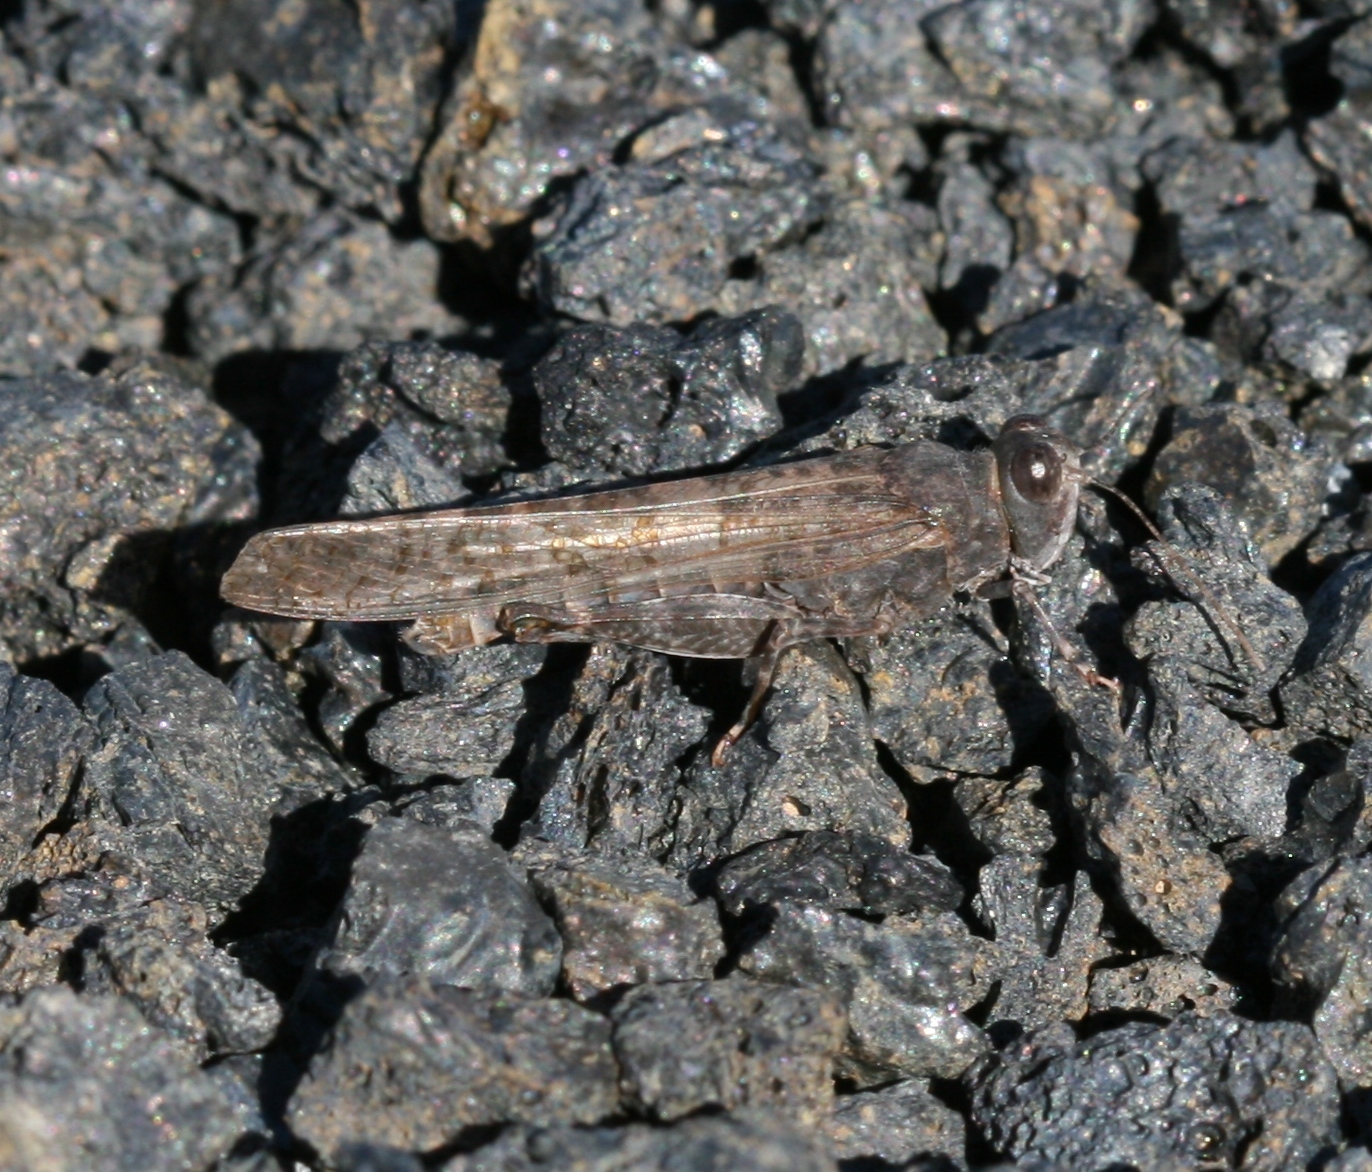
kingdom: Animalia
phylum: Arthropoda
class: Insecta
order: Orthoptera
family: Acrididae
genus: Sphingonotus
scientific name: Sphingonotus rubescens
